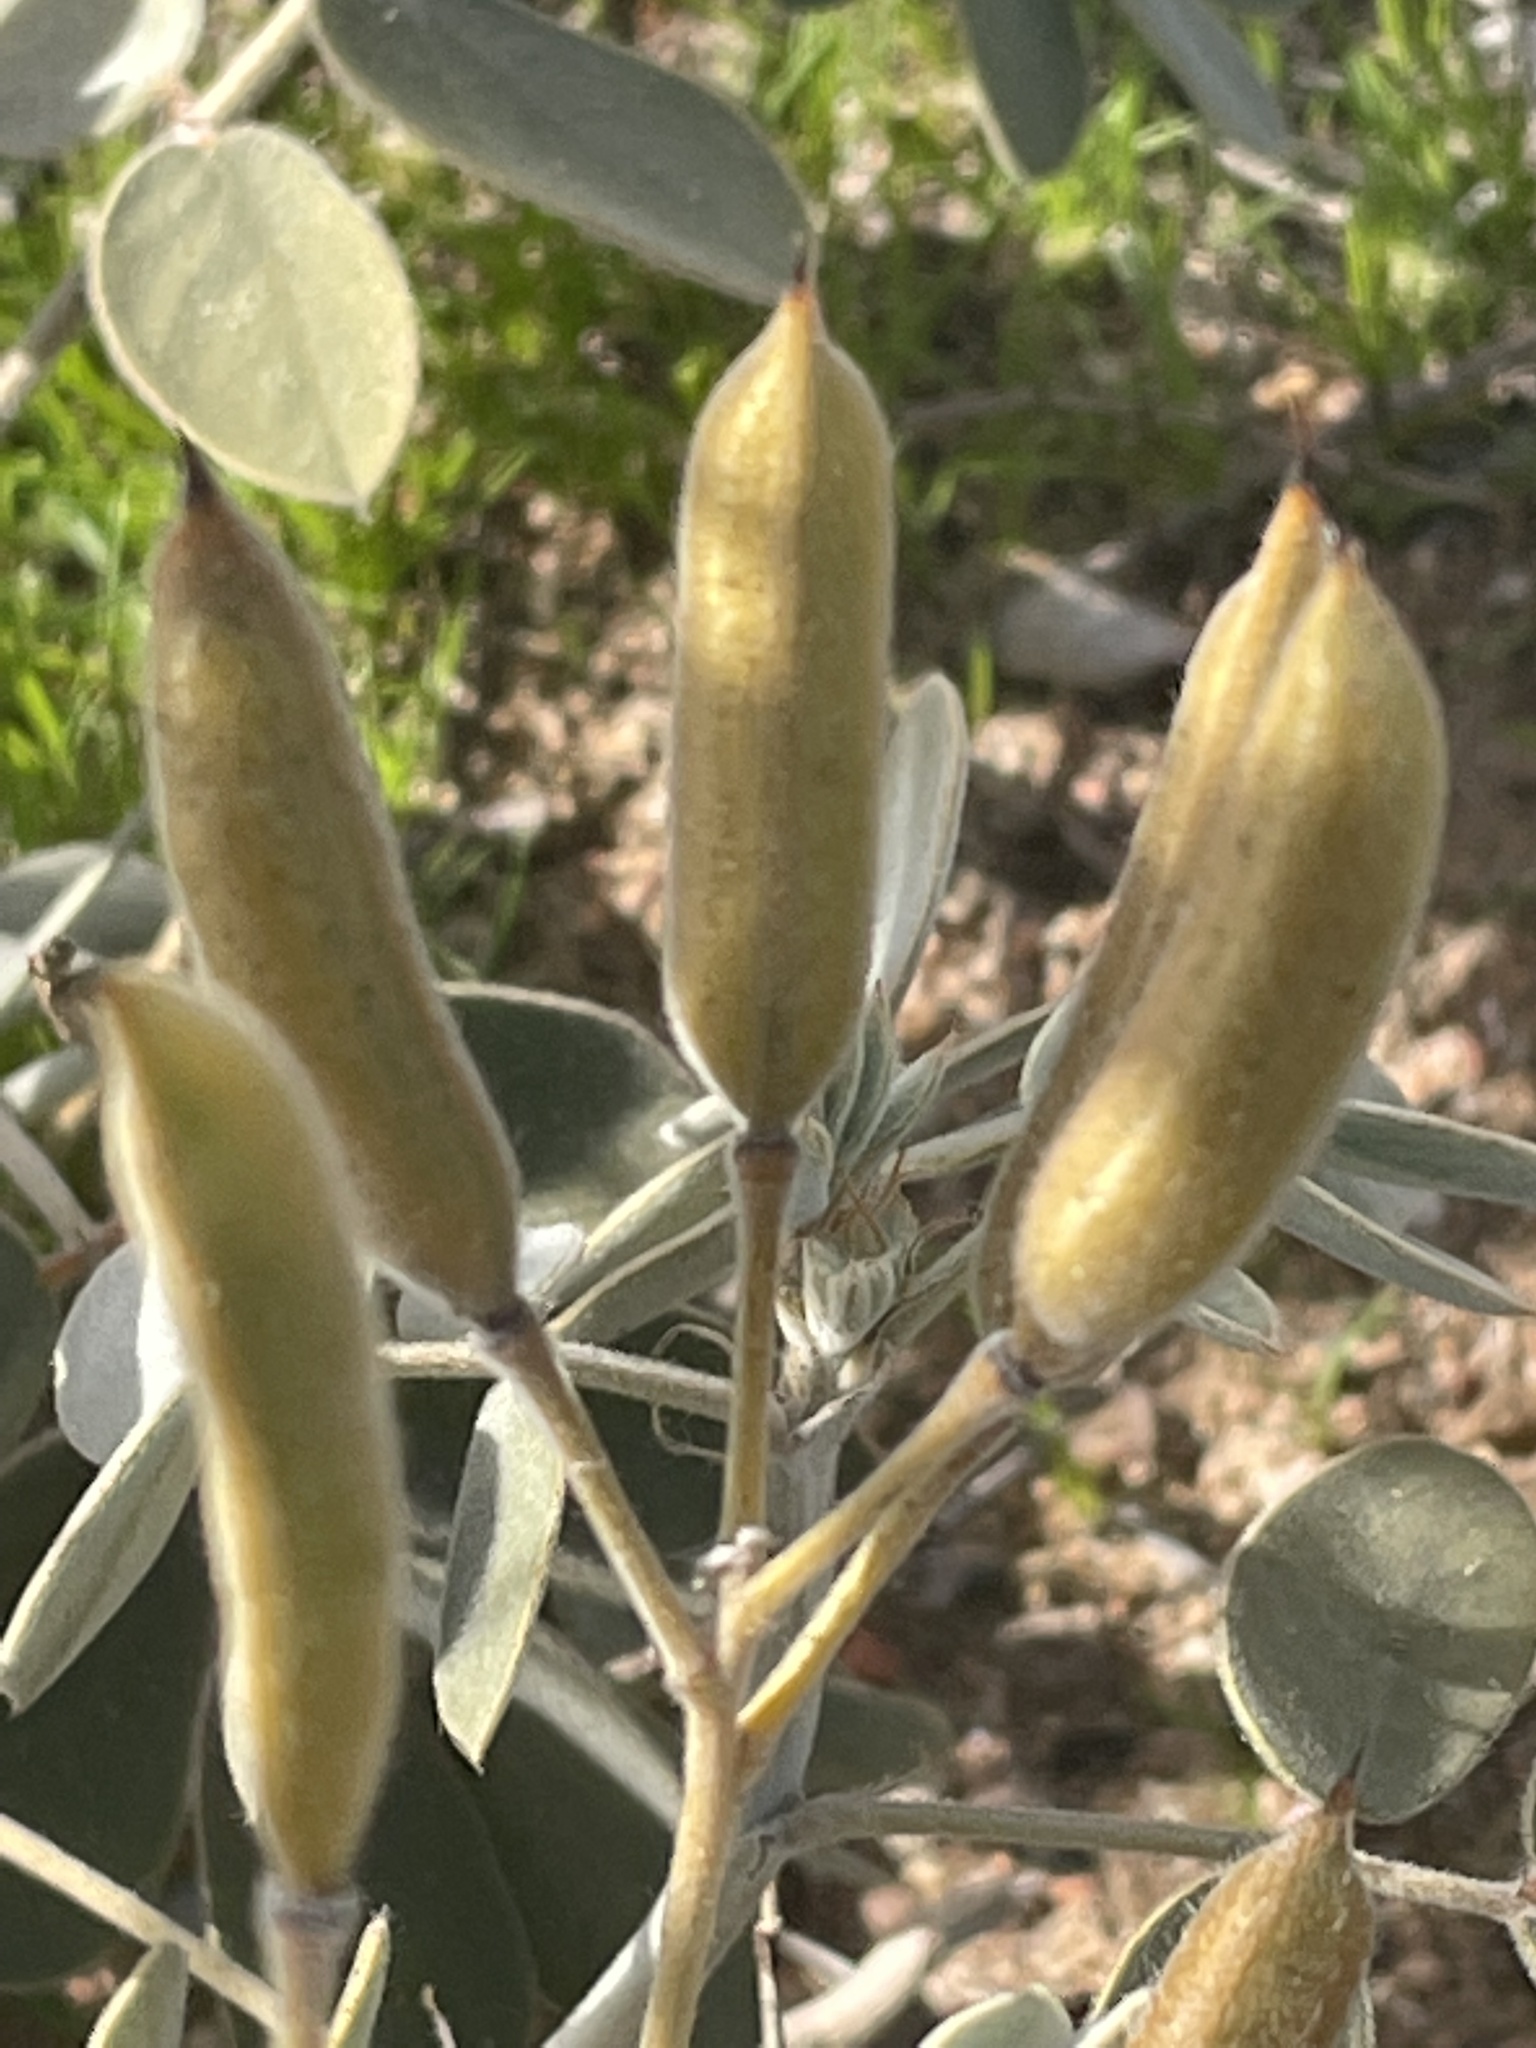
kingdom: Plantae
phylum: Tracheophyta
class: Magnoliopsida
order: Fabales
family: Fabaceae
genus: Senna
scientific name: Senna covesii
